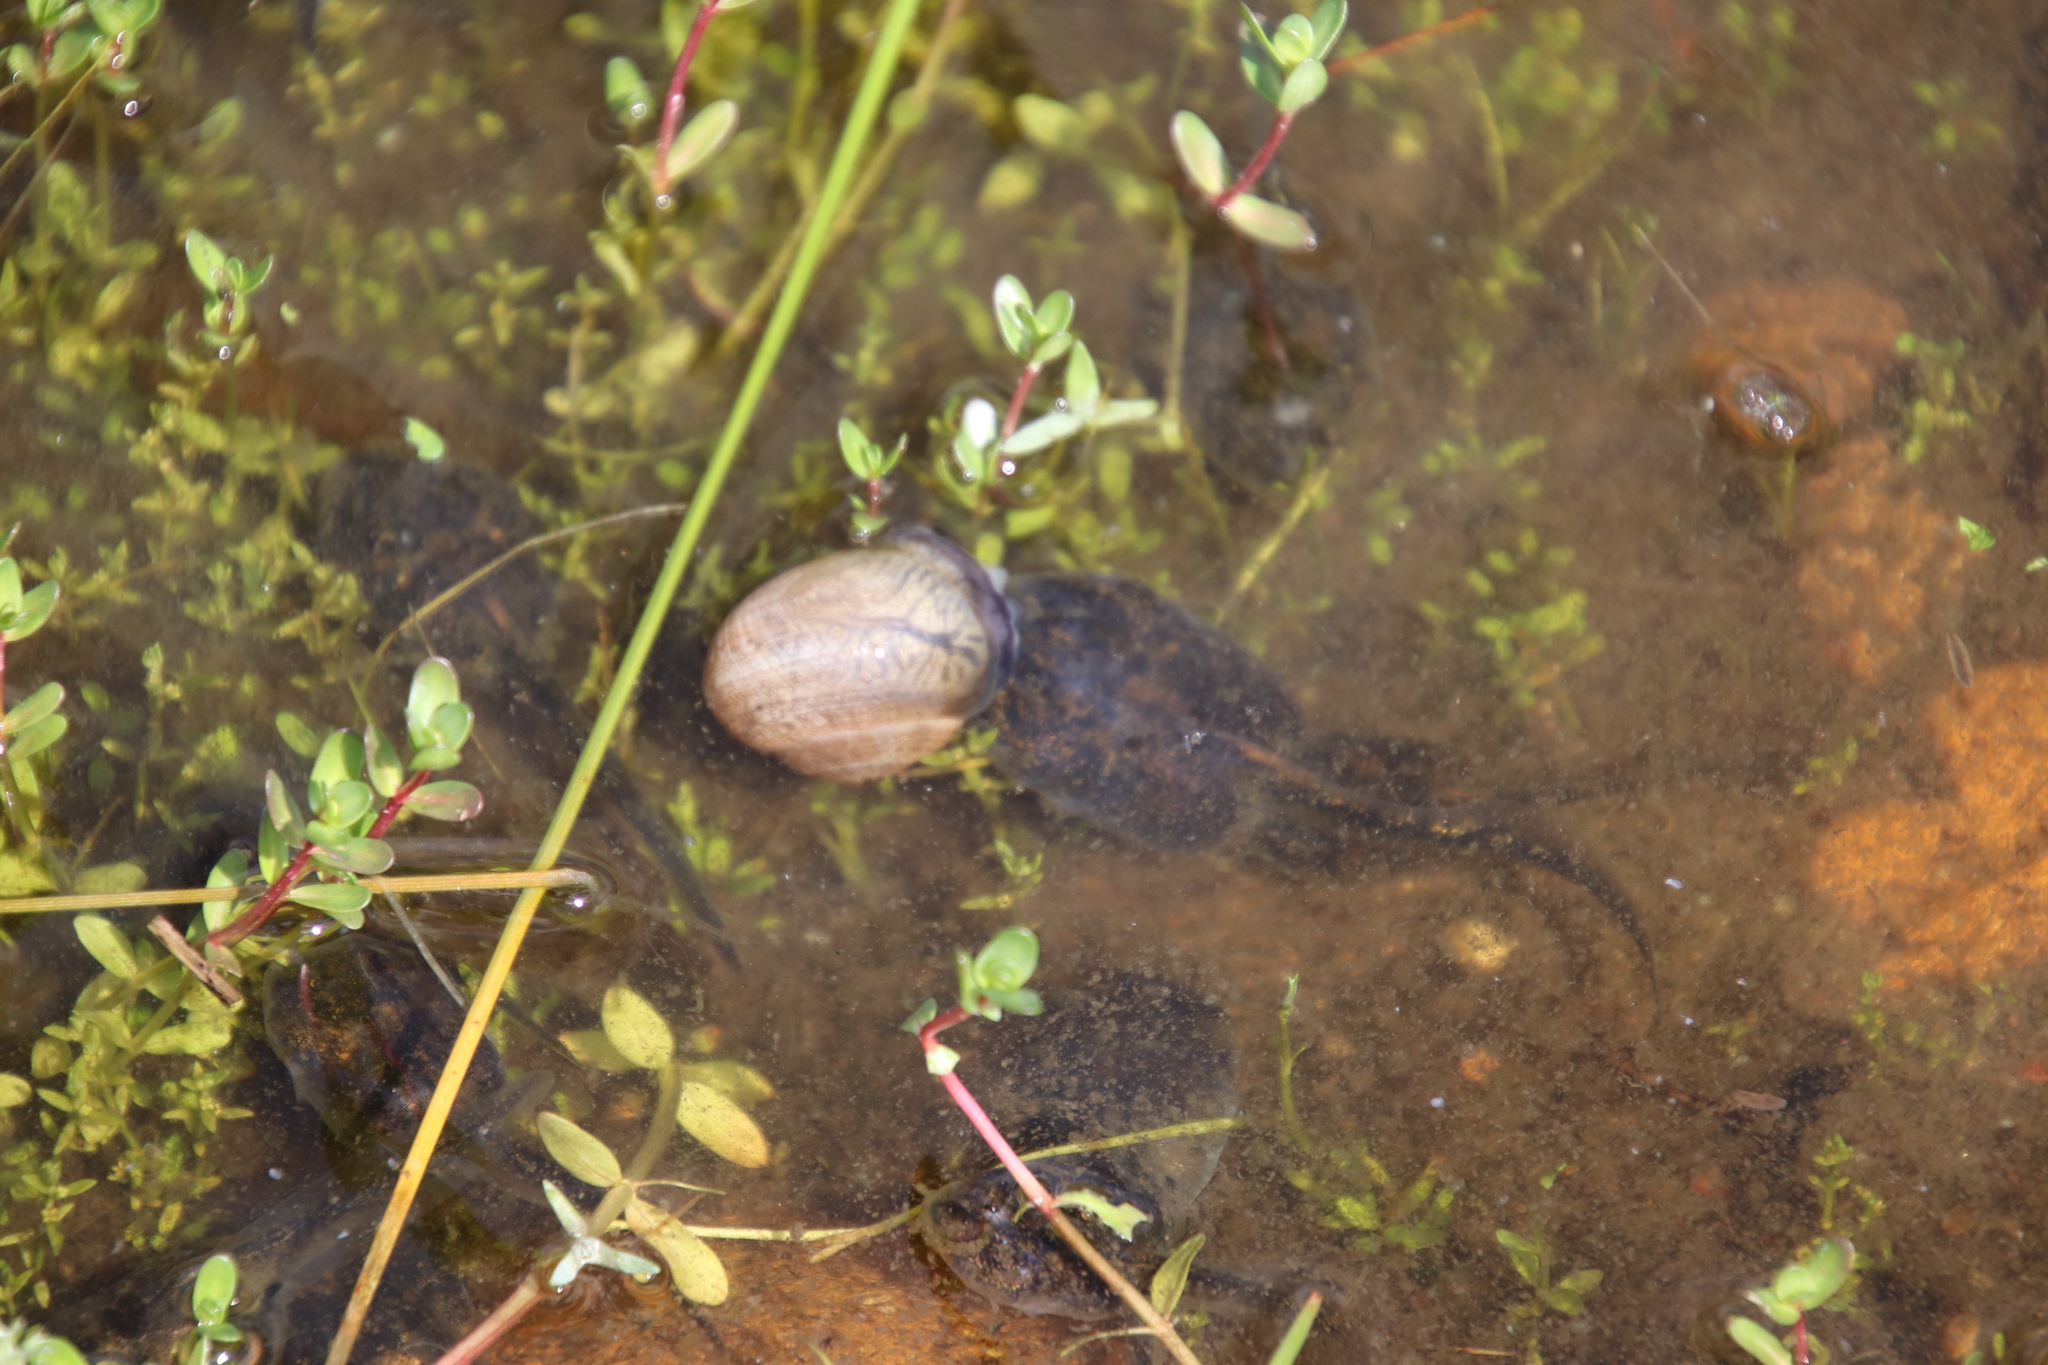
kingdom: Animalia
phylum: Chordata
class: Amphibia
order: Anura
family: Scaphiopodidae
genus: Spea
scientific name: Spea hammondii
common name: Western spadefoot toad
